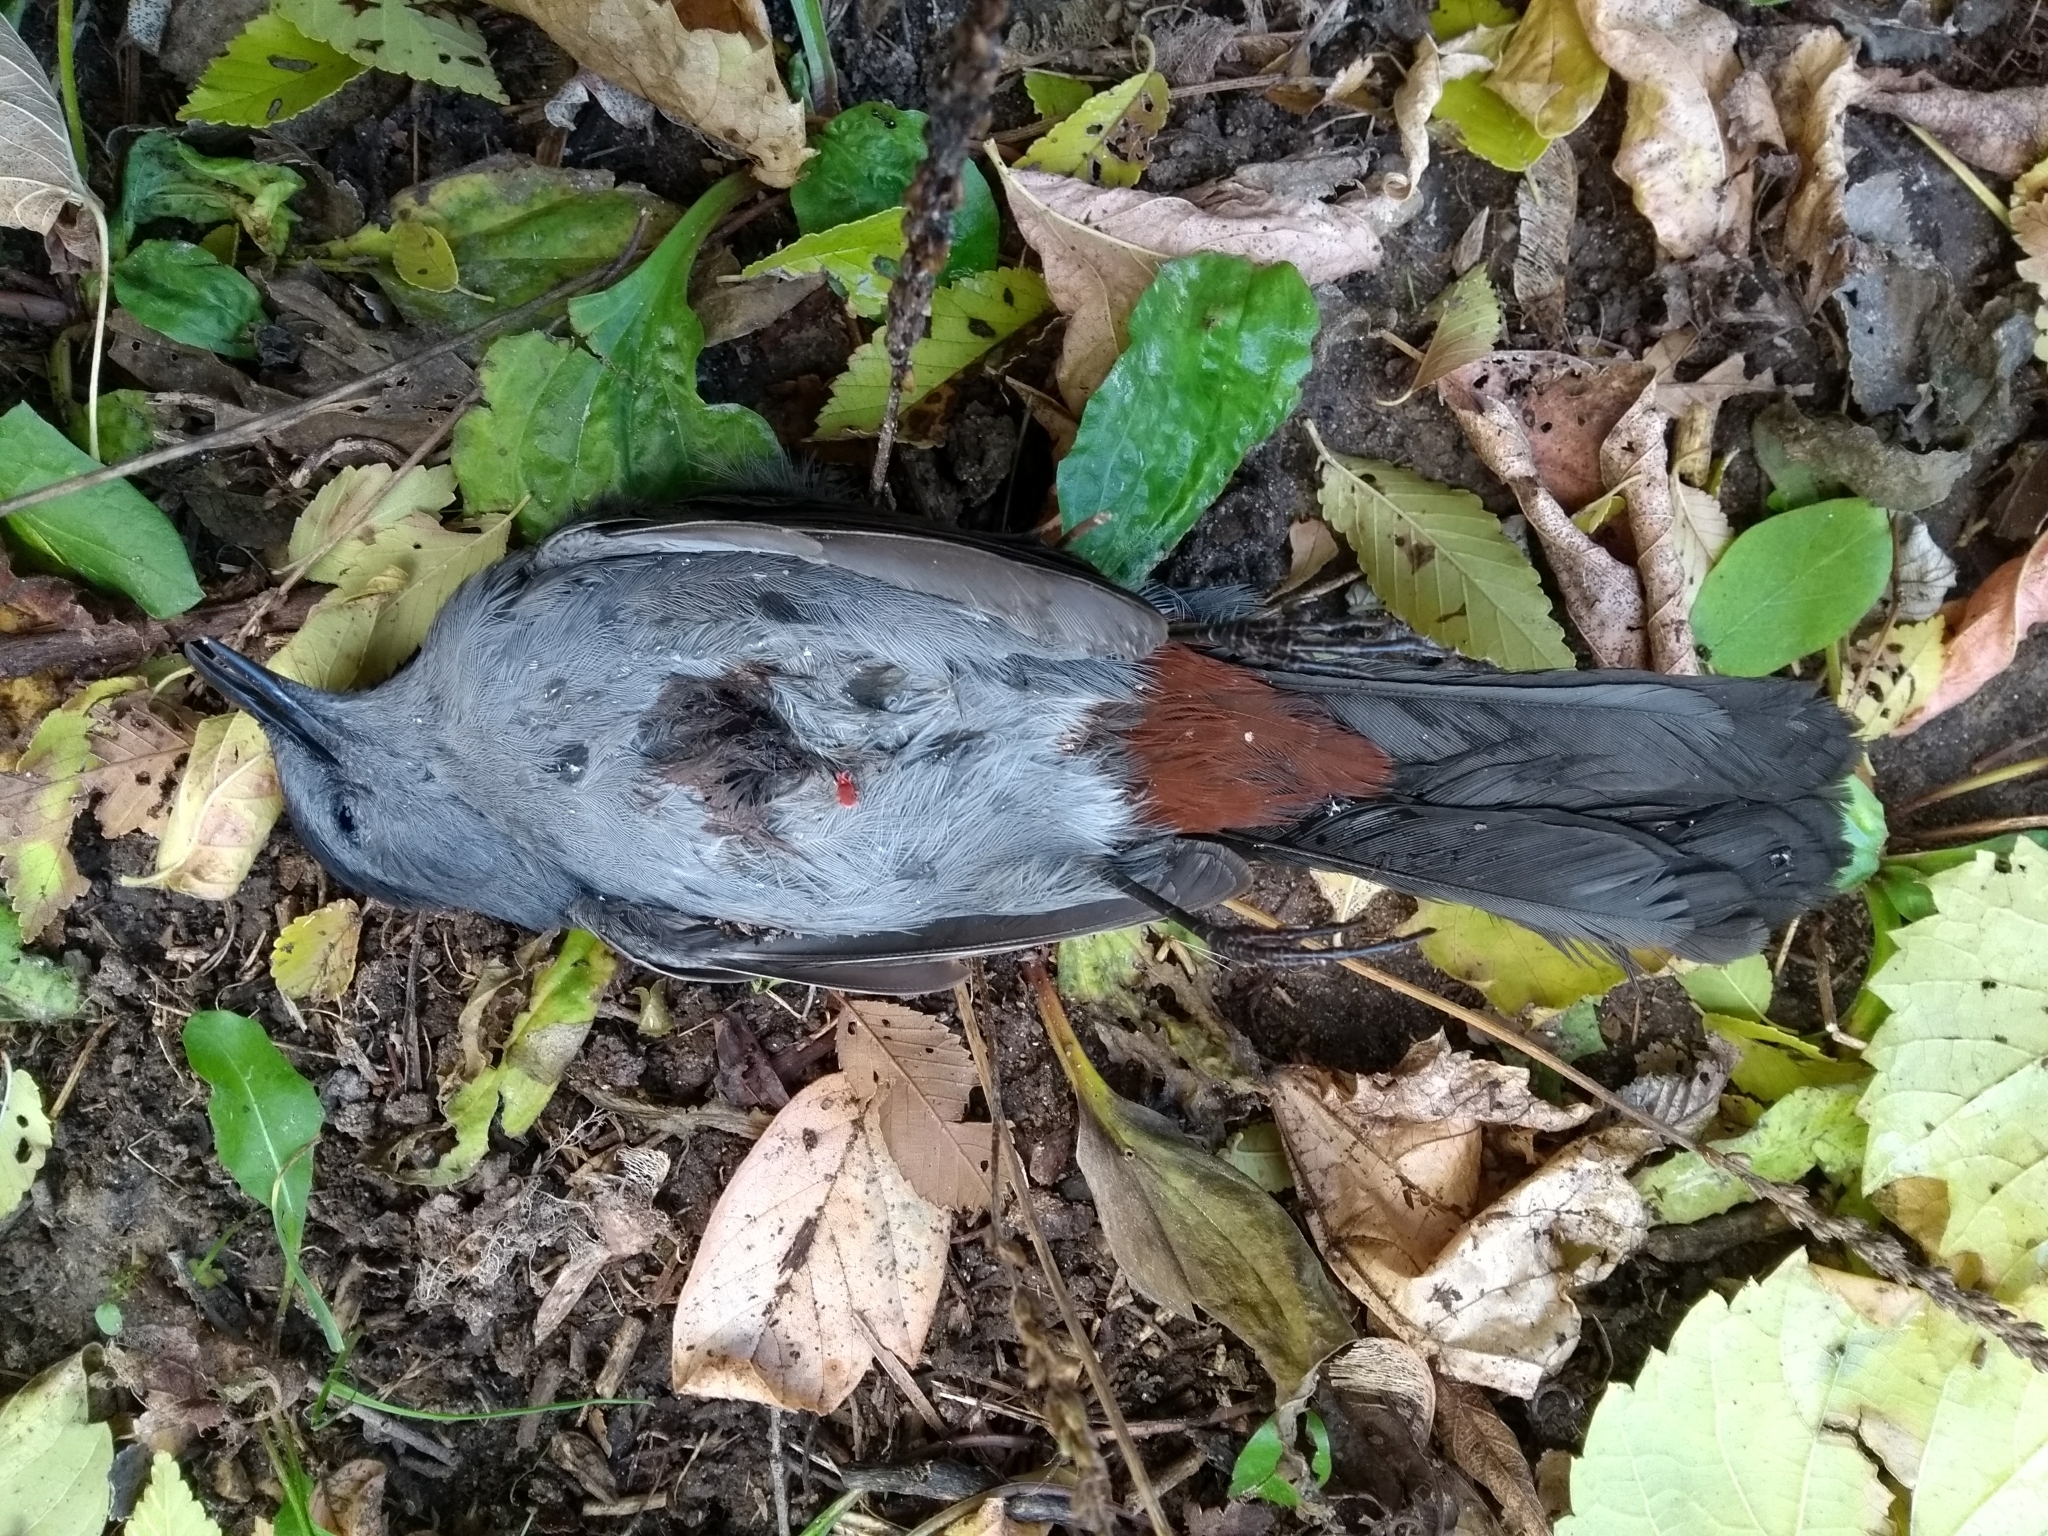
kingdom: Animalia
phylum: Chordata
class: Aves
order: Passeriformes
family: Mimidae
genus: Dumetella
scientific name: Dumetella carolinensis
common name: Gray catbird
